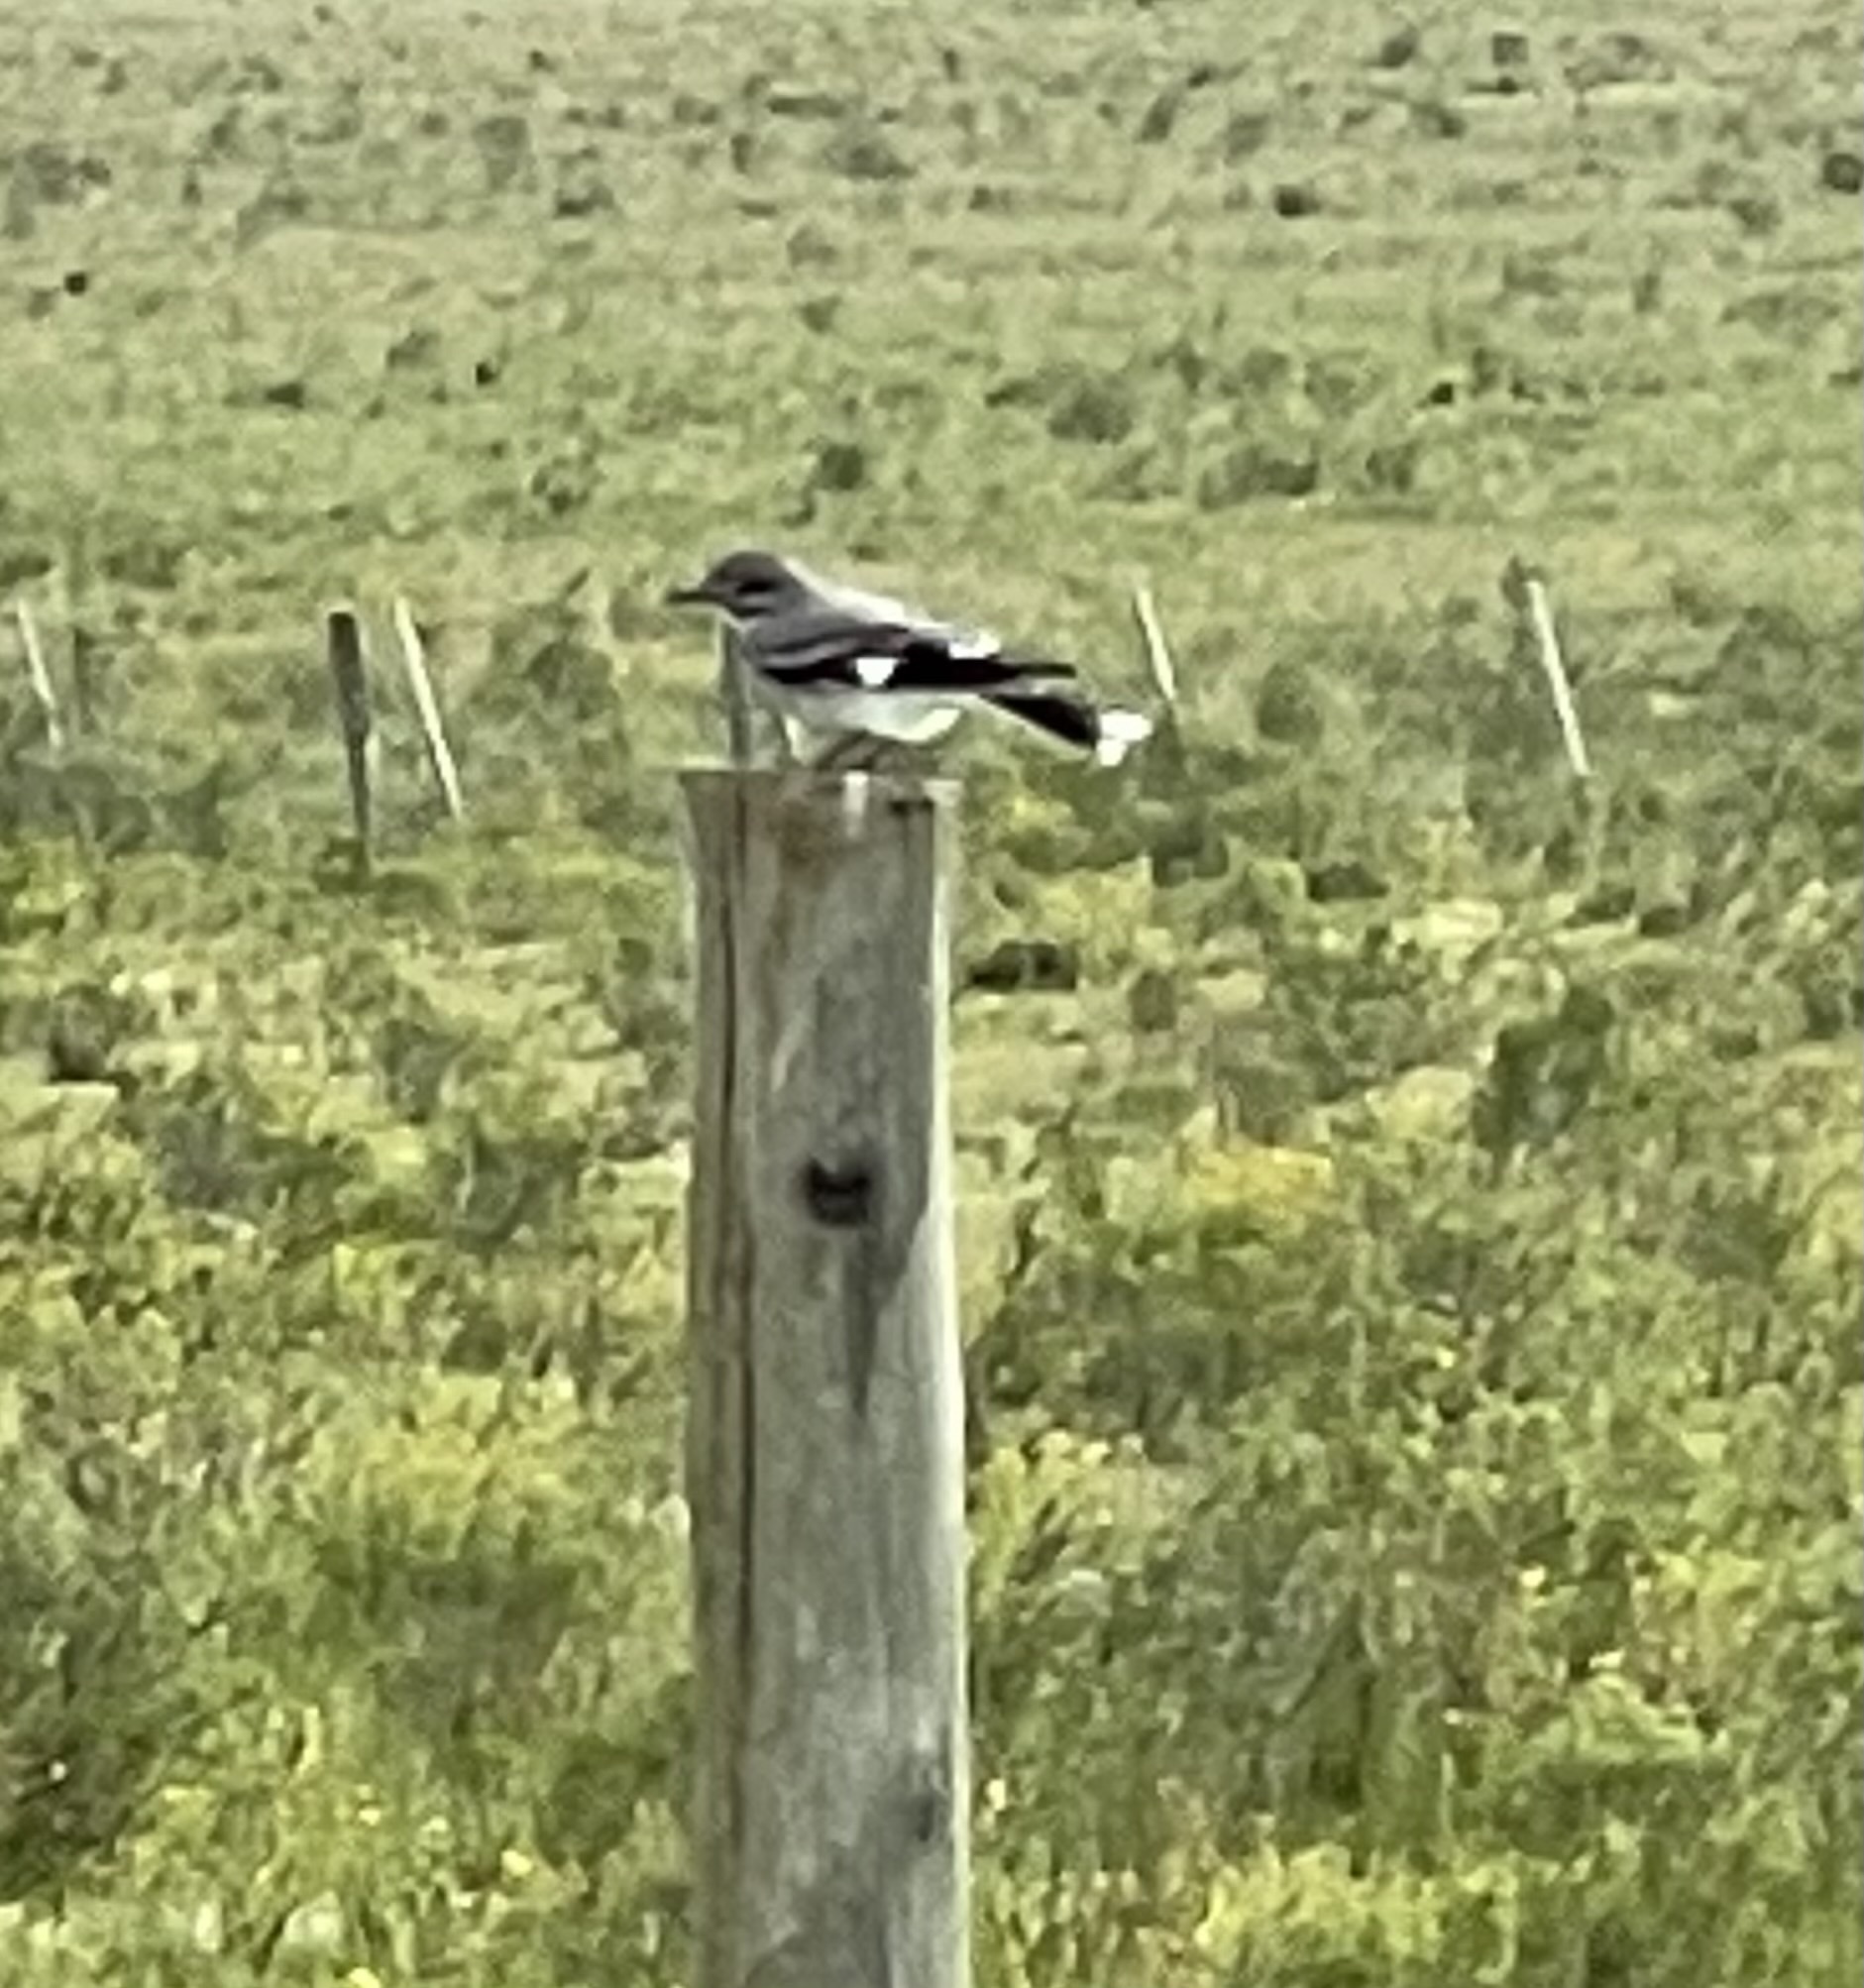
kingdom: Animalia
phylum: Chordata
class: Aves
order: Passeriformes
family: Tyrannidae
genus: Xolmis
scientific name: Xolmis cinereus
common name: Grey monjita
